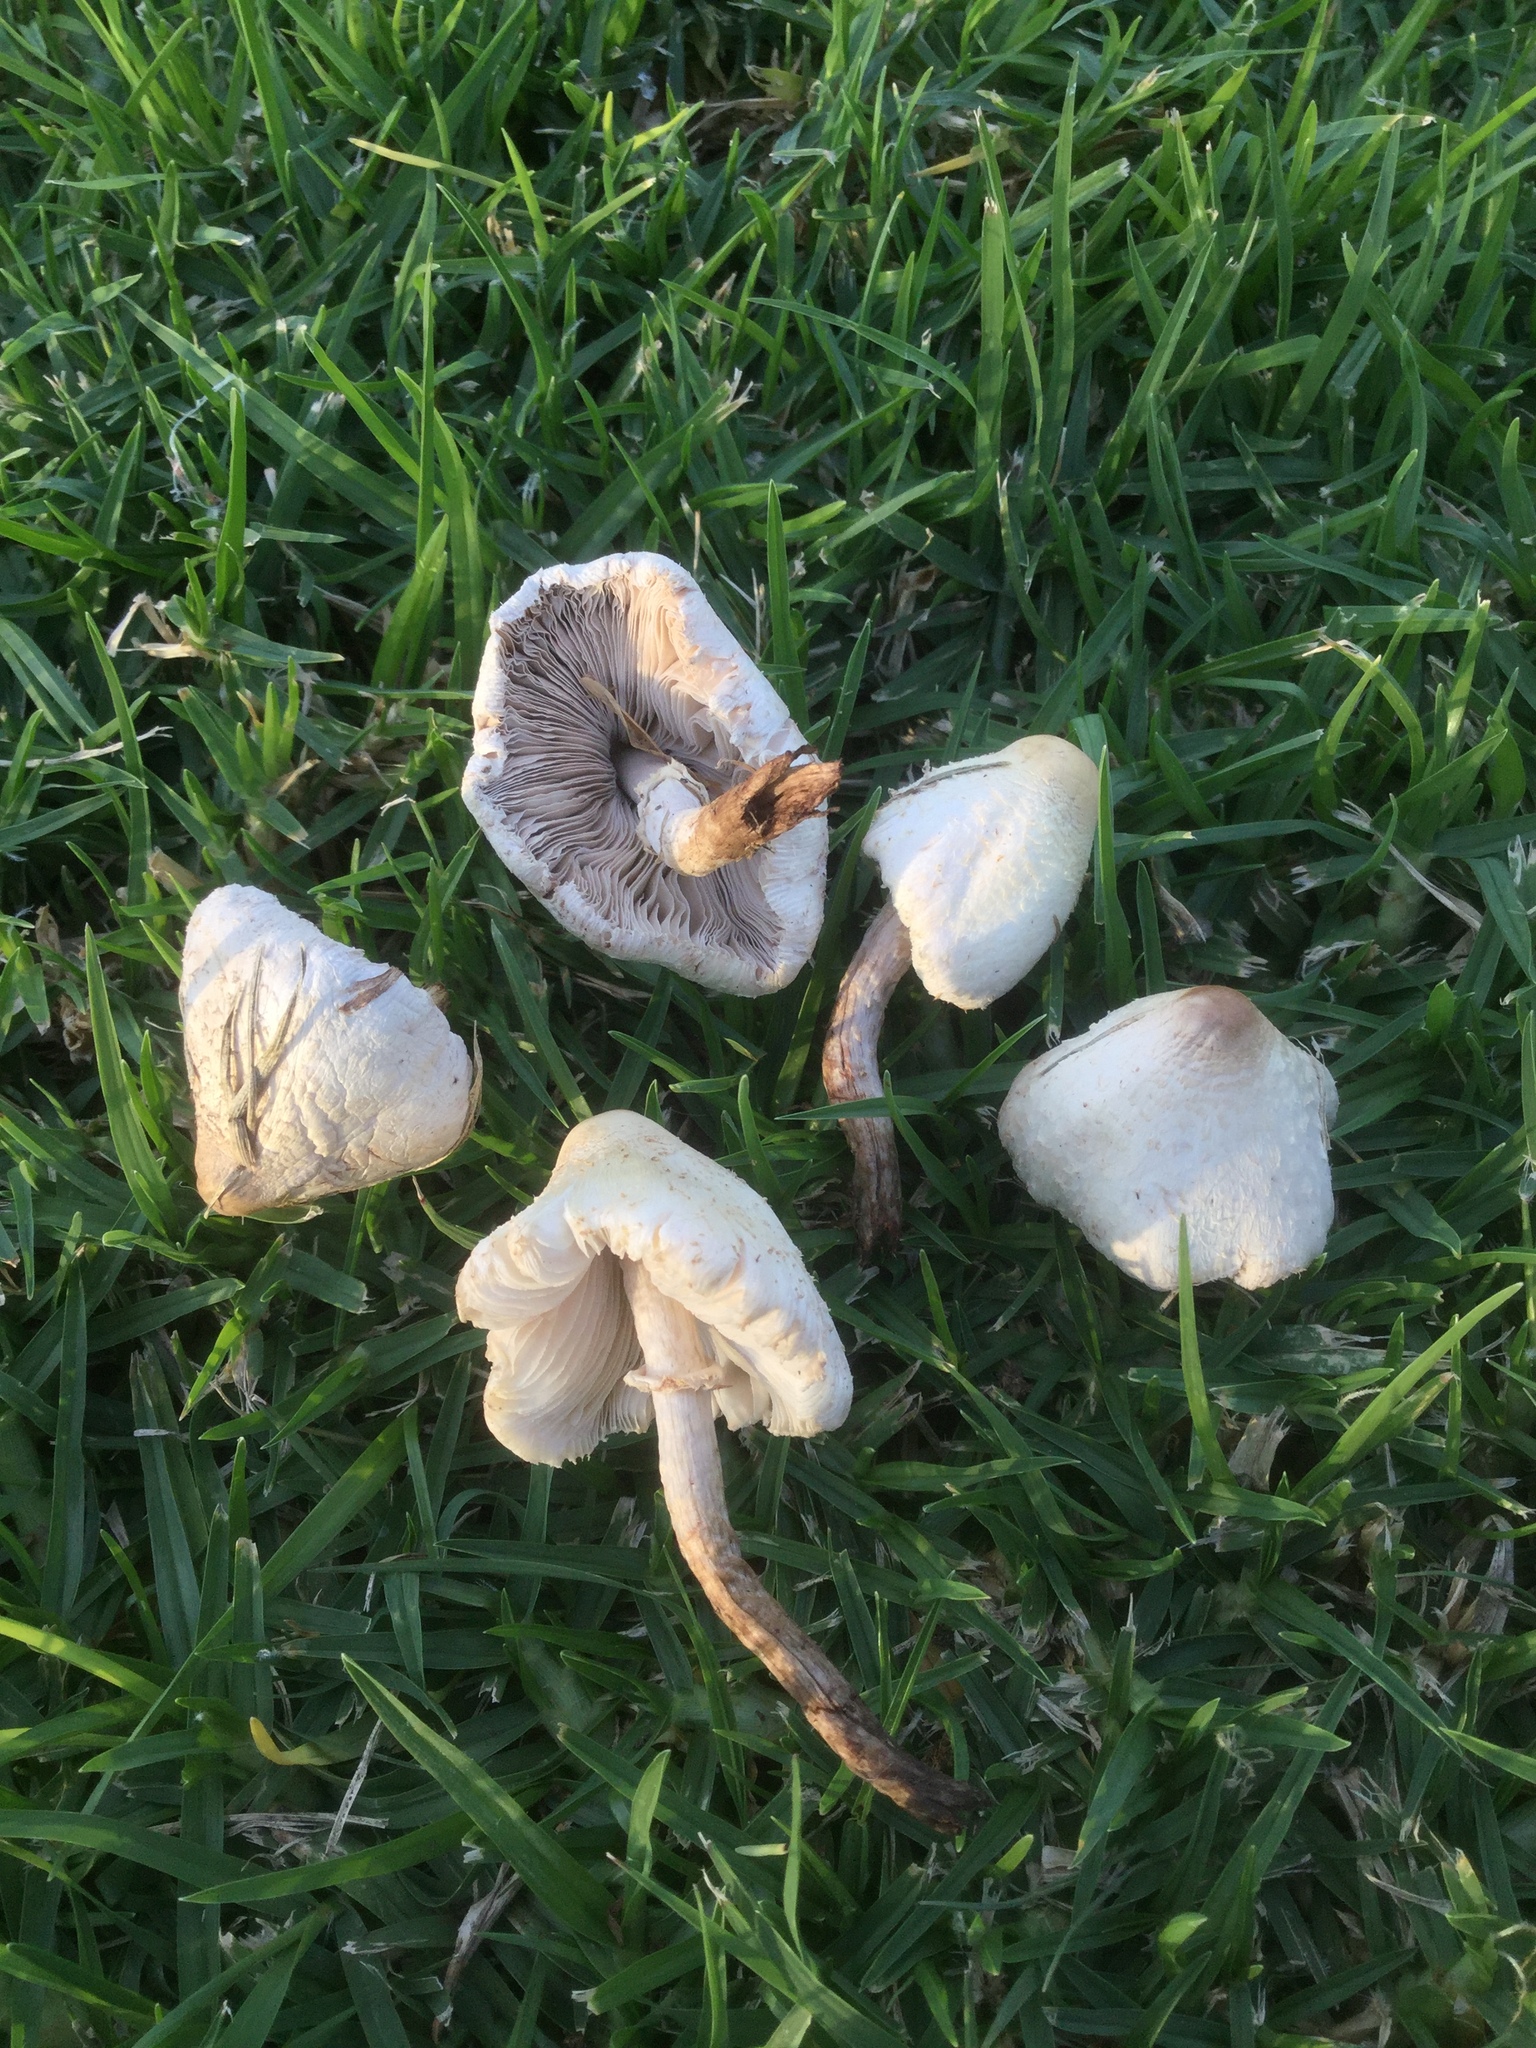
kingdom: Fungi
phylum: Basidiomycota
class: Agaricomycetes
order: Agaricales
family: Agaricaceae
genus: Chlorophyllum
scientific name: Chlorophyllum hortense
